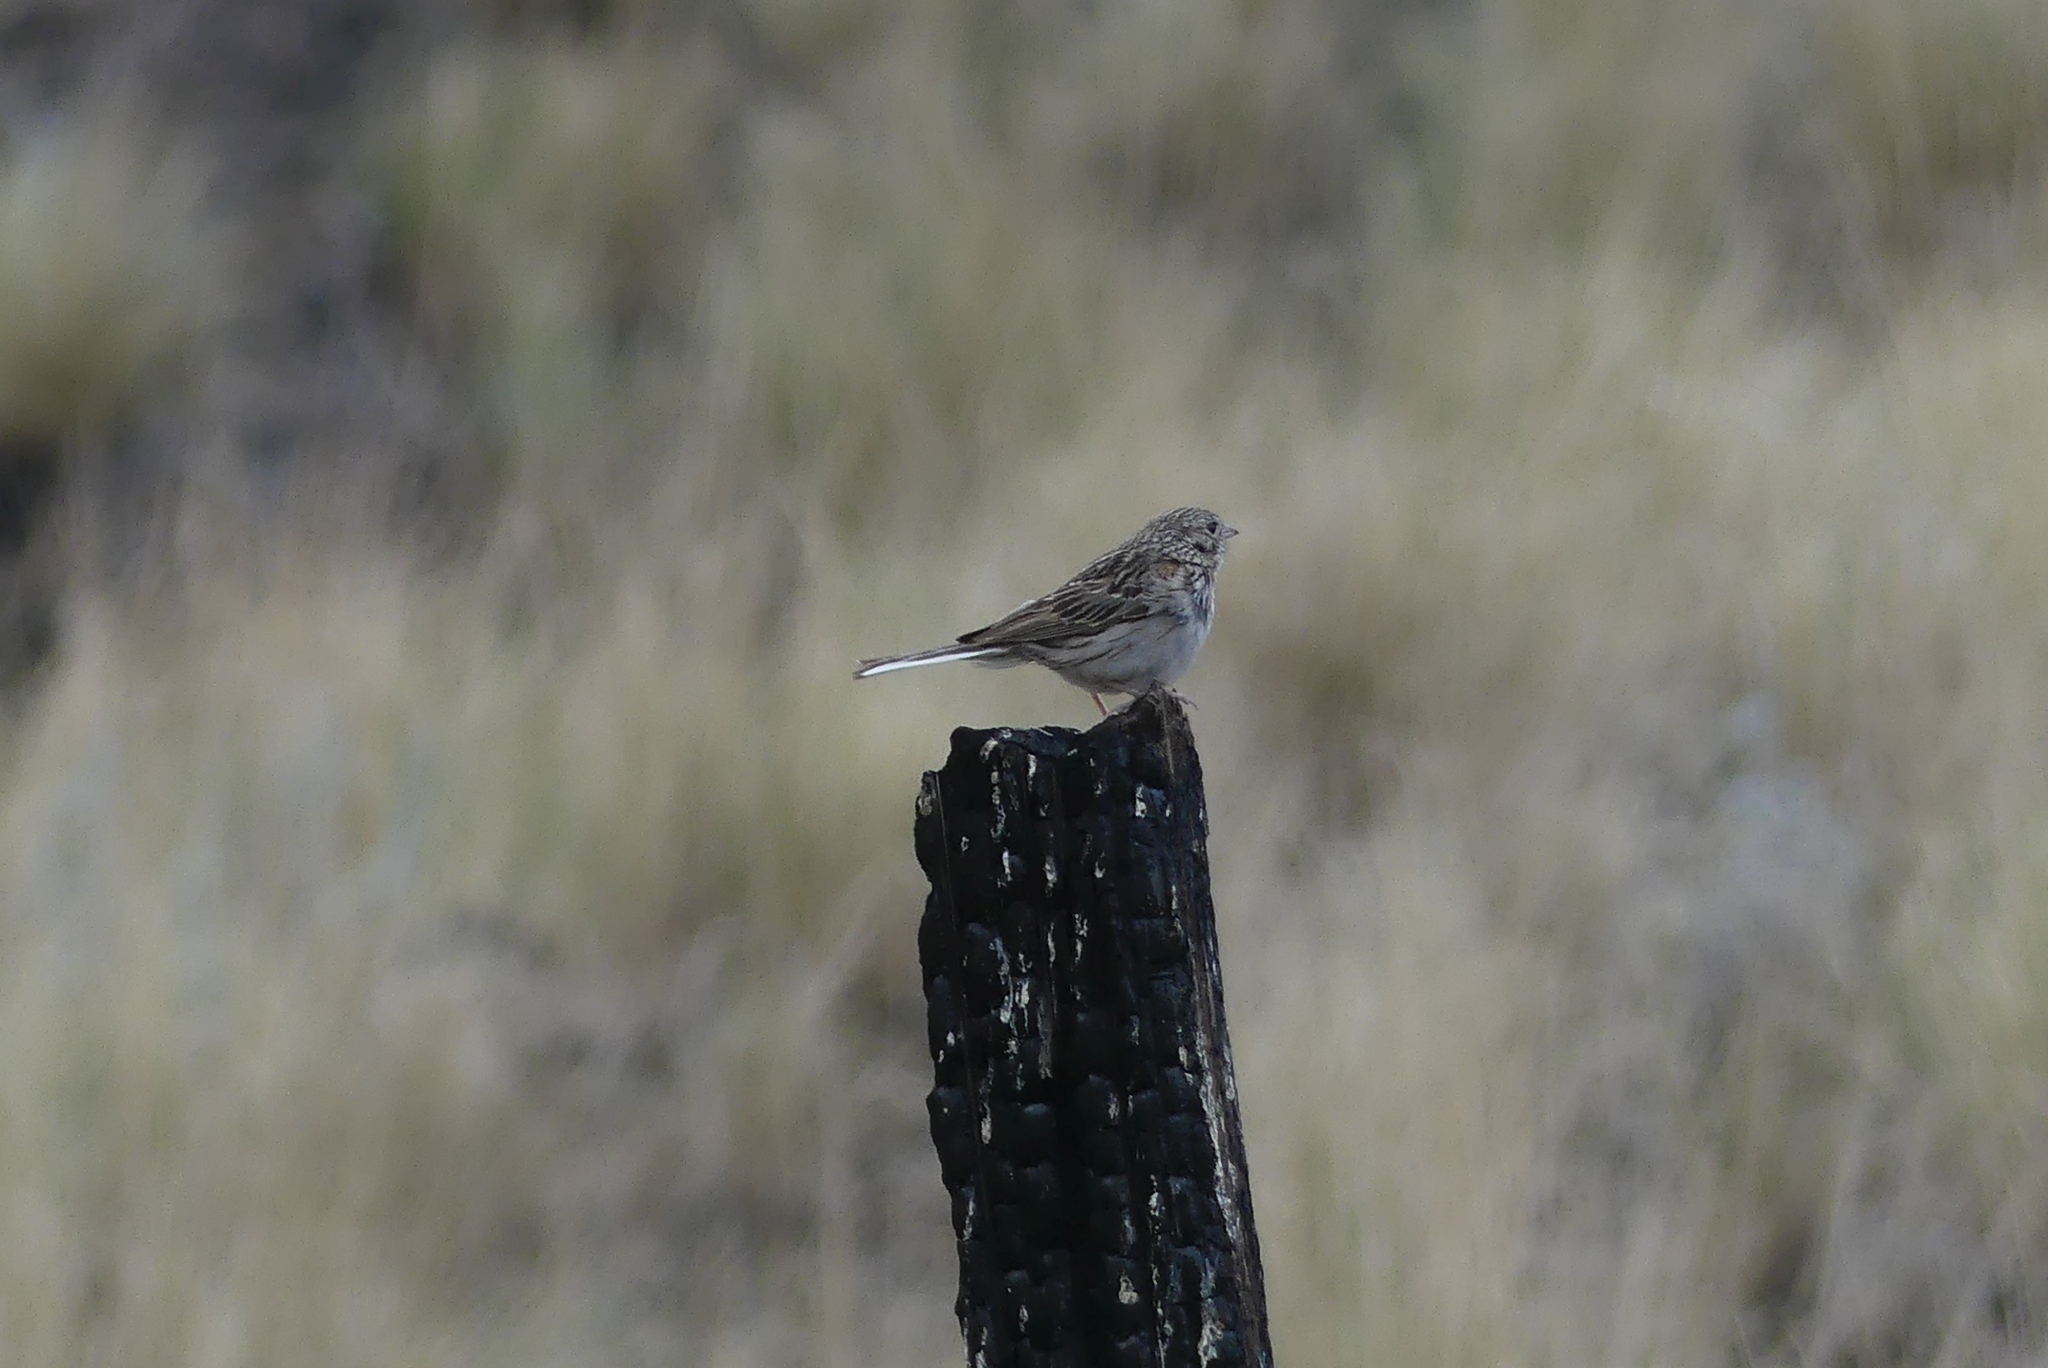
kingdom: Animalia
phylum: Chordata
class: Aves
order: Passeriformes
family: Passerellidae
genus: Pooecetes
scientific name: Pooecetes gramineus
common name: Vesper sparrow
